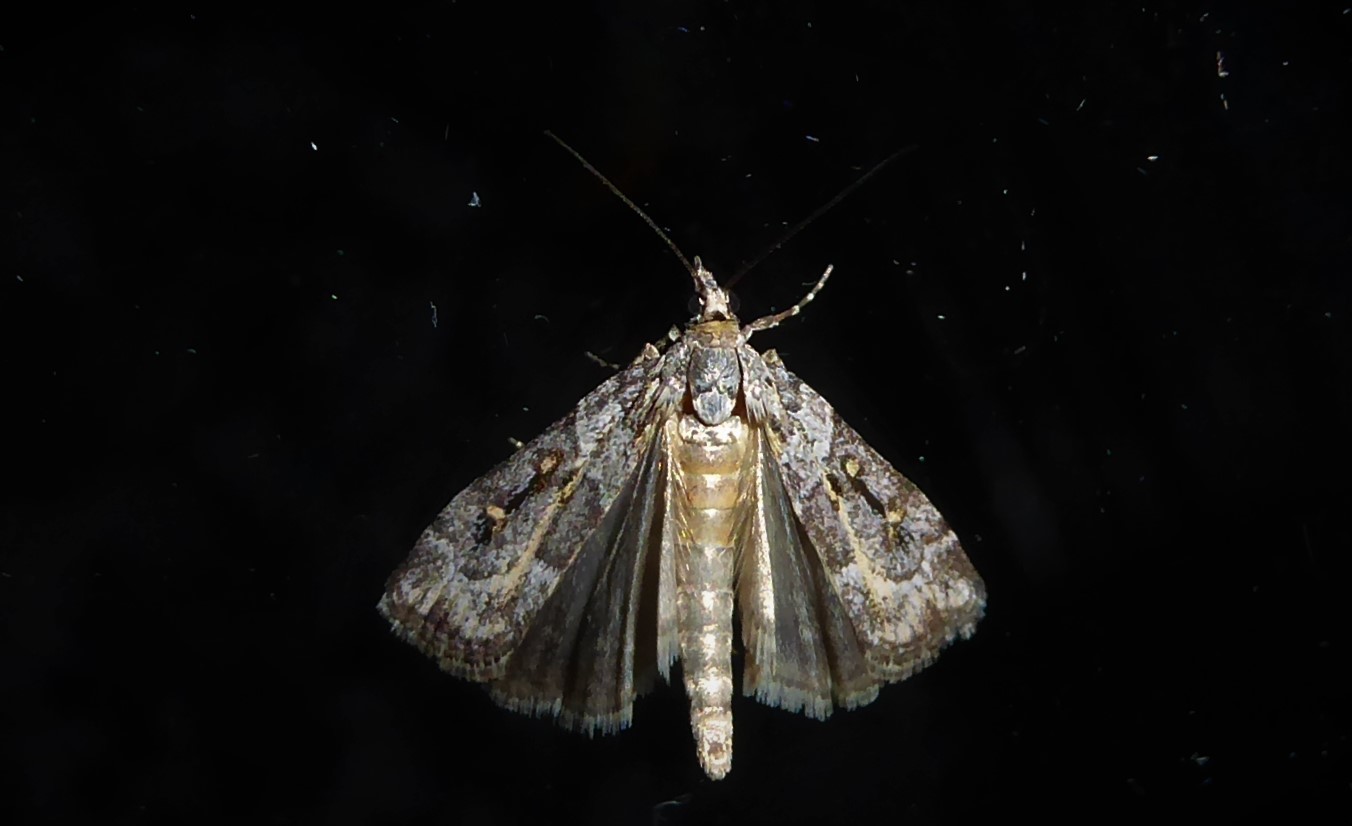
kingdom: Animalia
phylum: Arthropoda
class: Insecta
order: Lepidoptera
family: Crambidae
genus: Eudonia
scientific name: Eudonia diphtheralis
